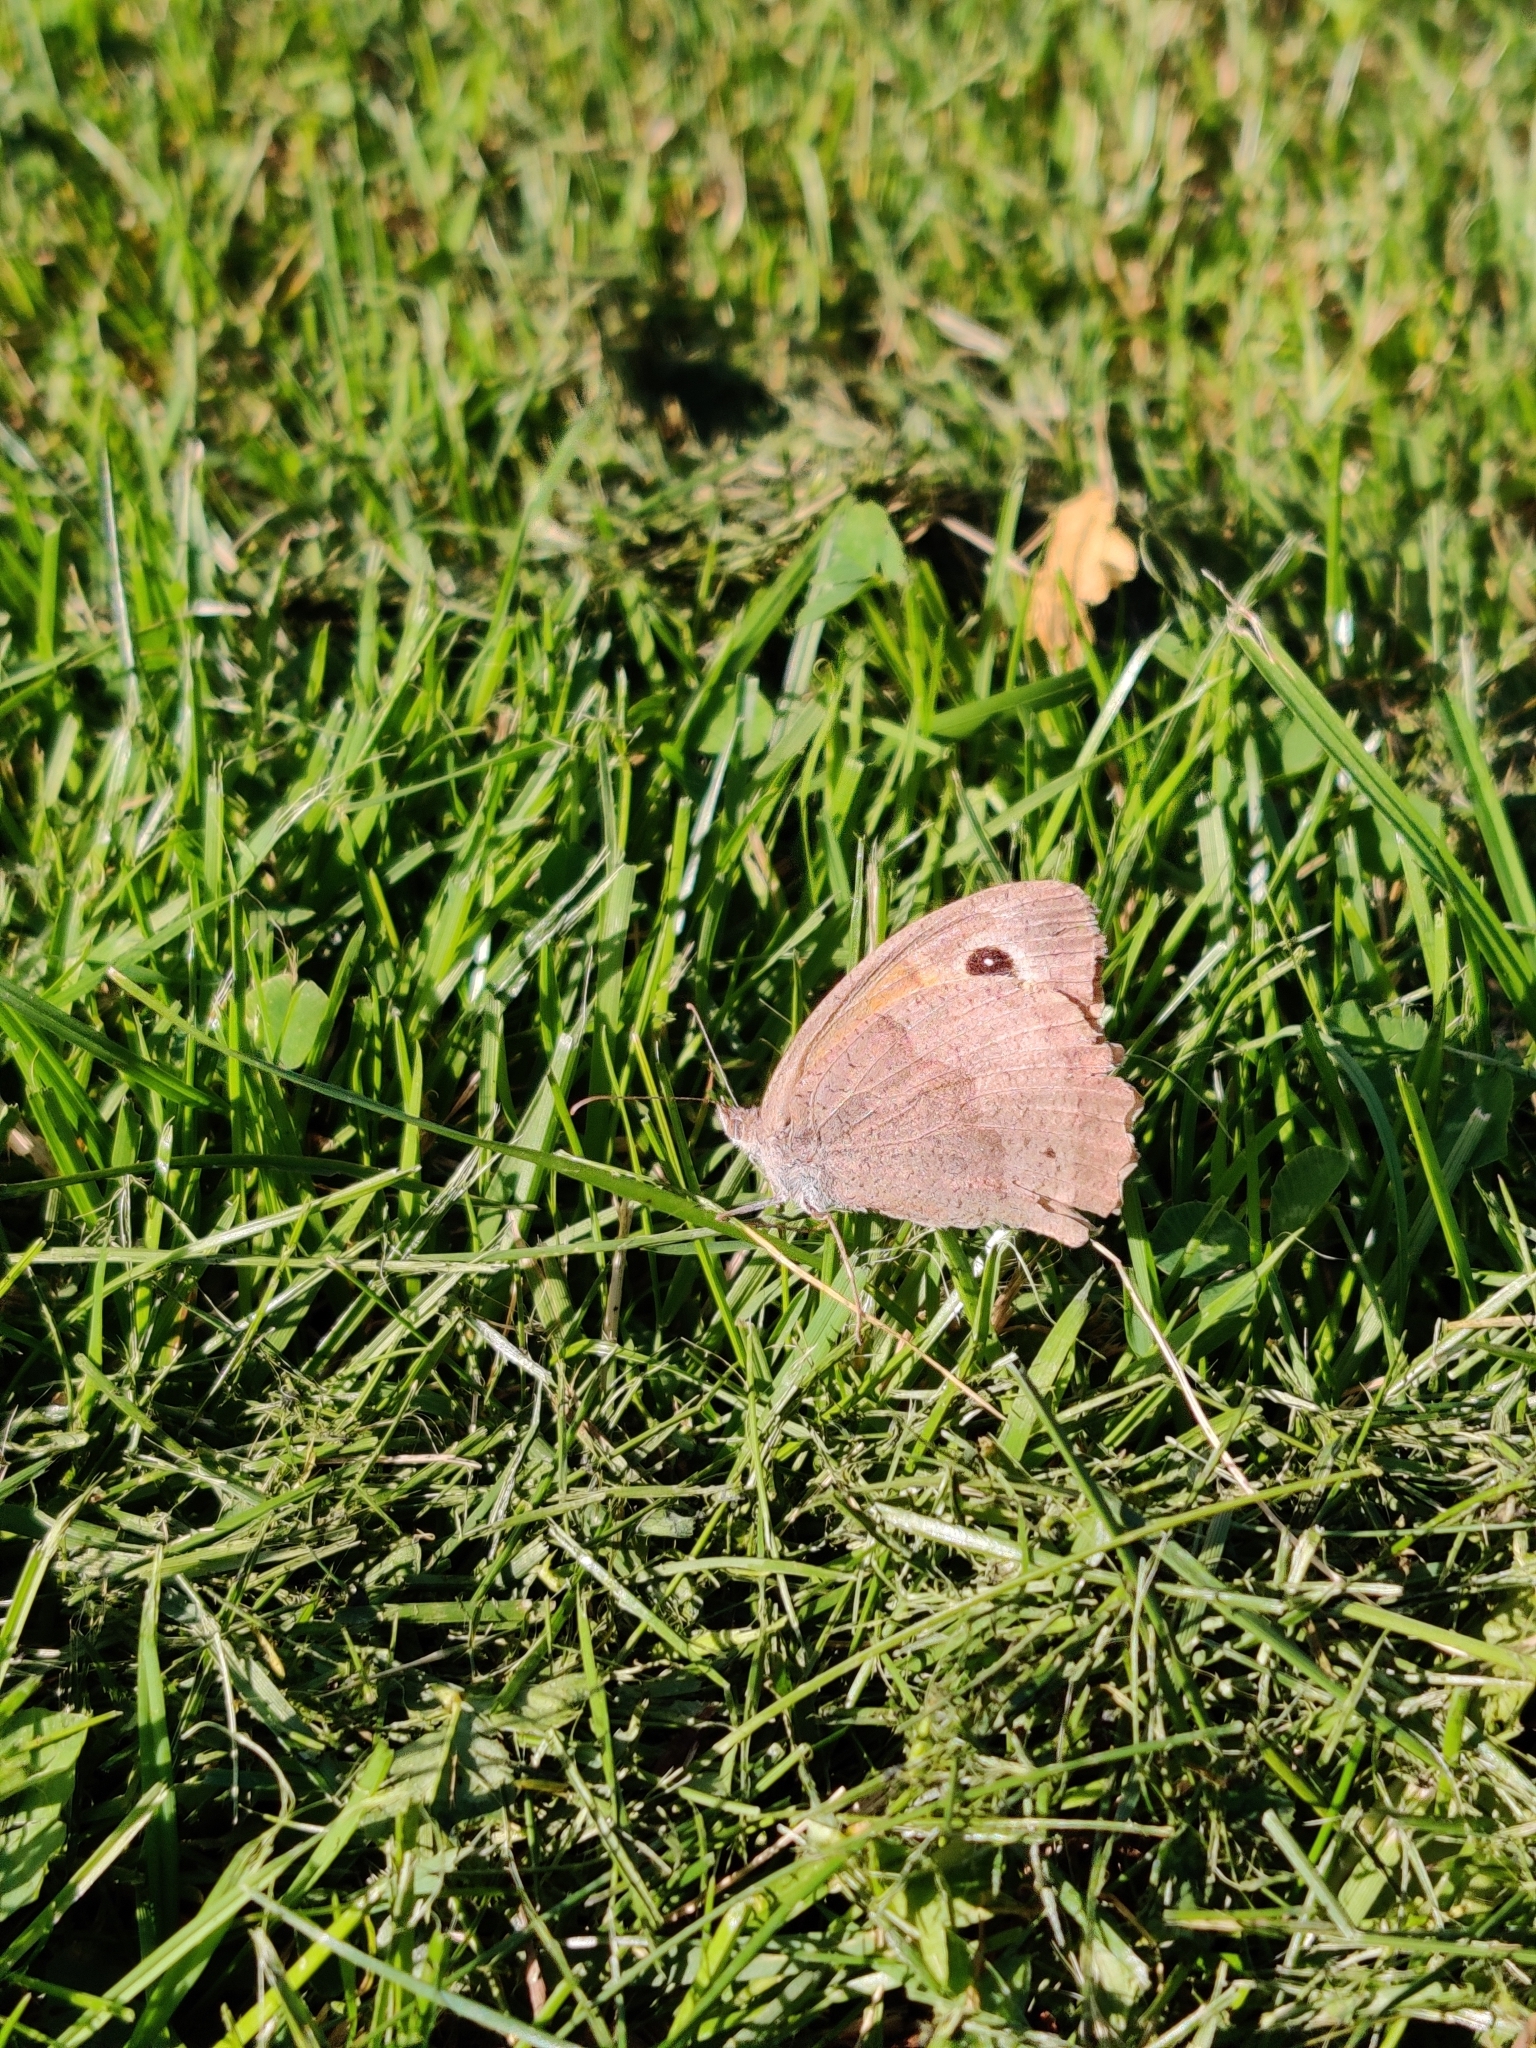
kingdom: Animalia
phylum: Arthropoda
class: Insecta
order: Lepidoptera
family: Nymphalidae
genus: Maniola
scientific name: Maniola jurtina
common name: Meadow brown
